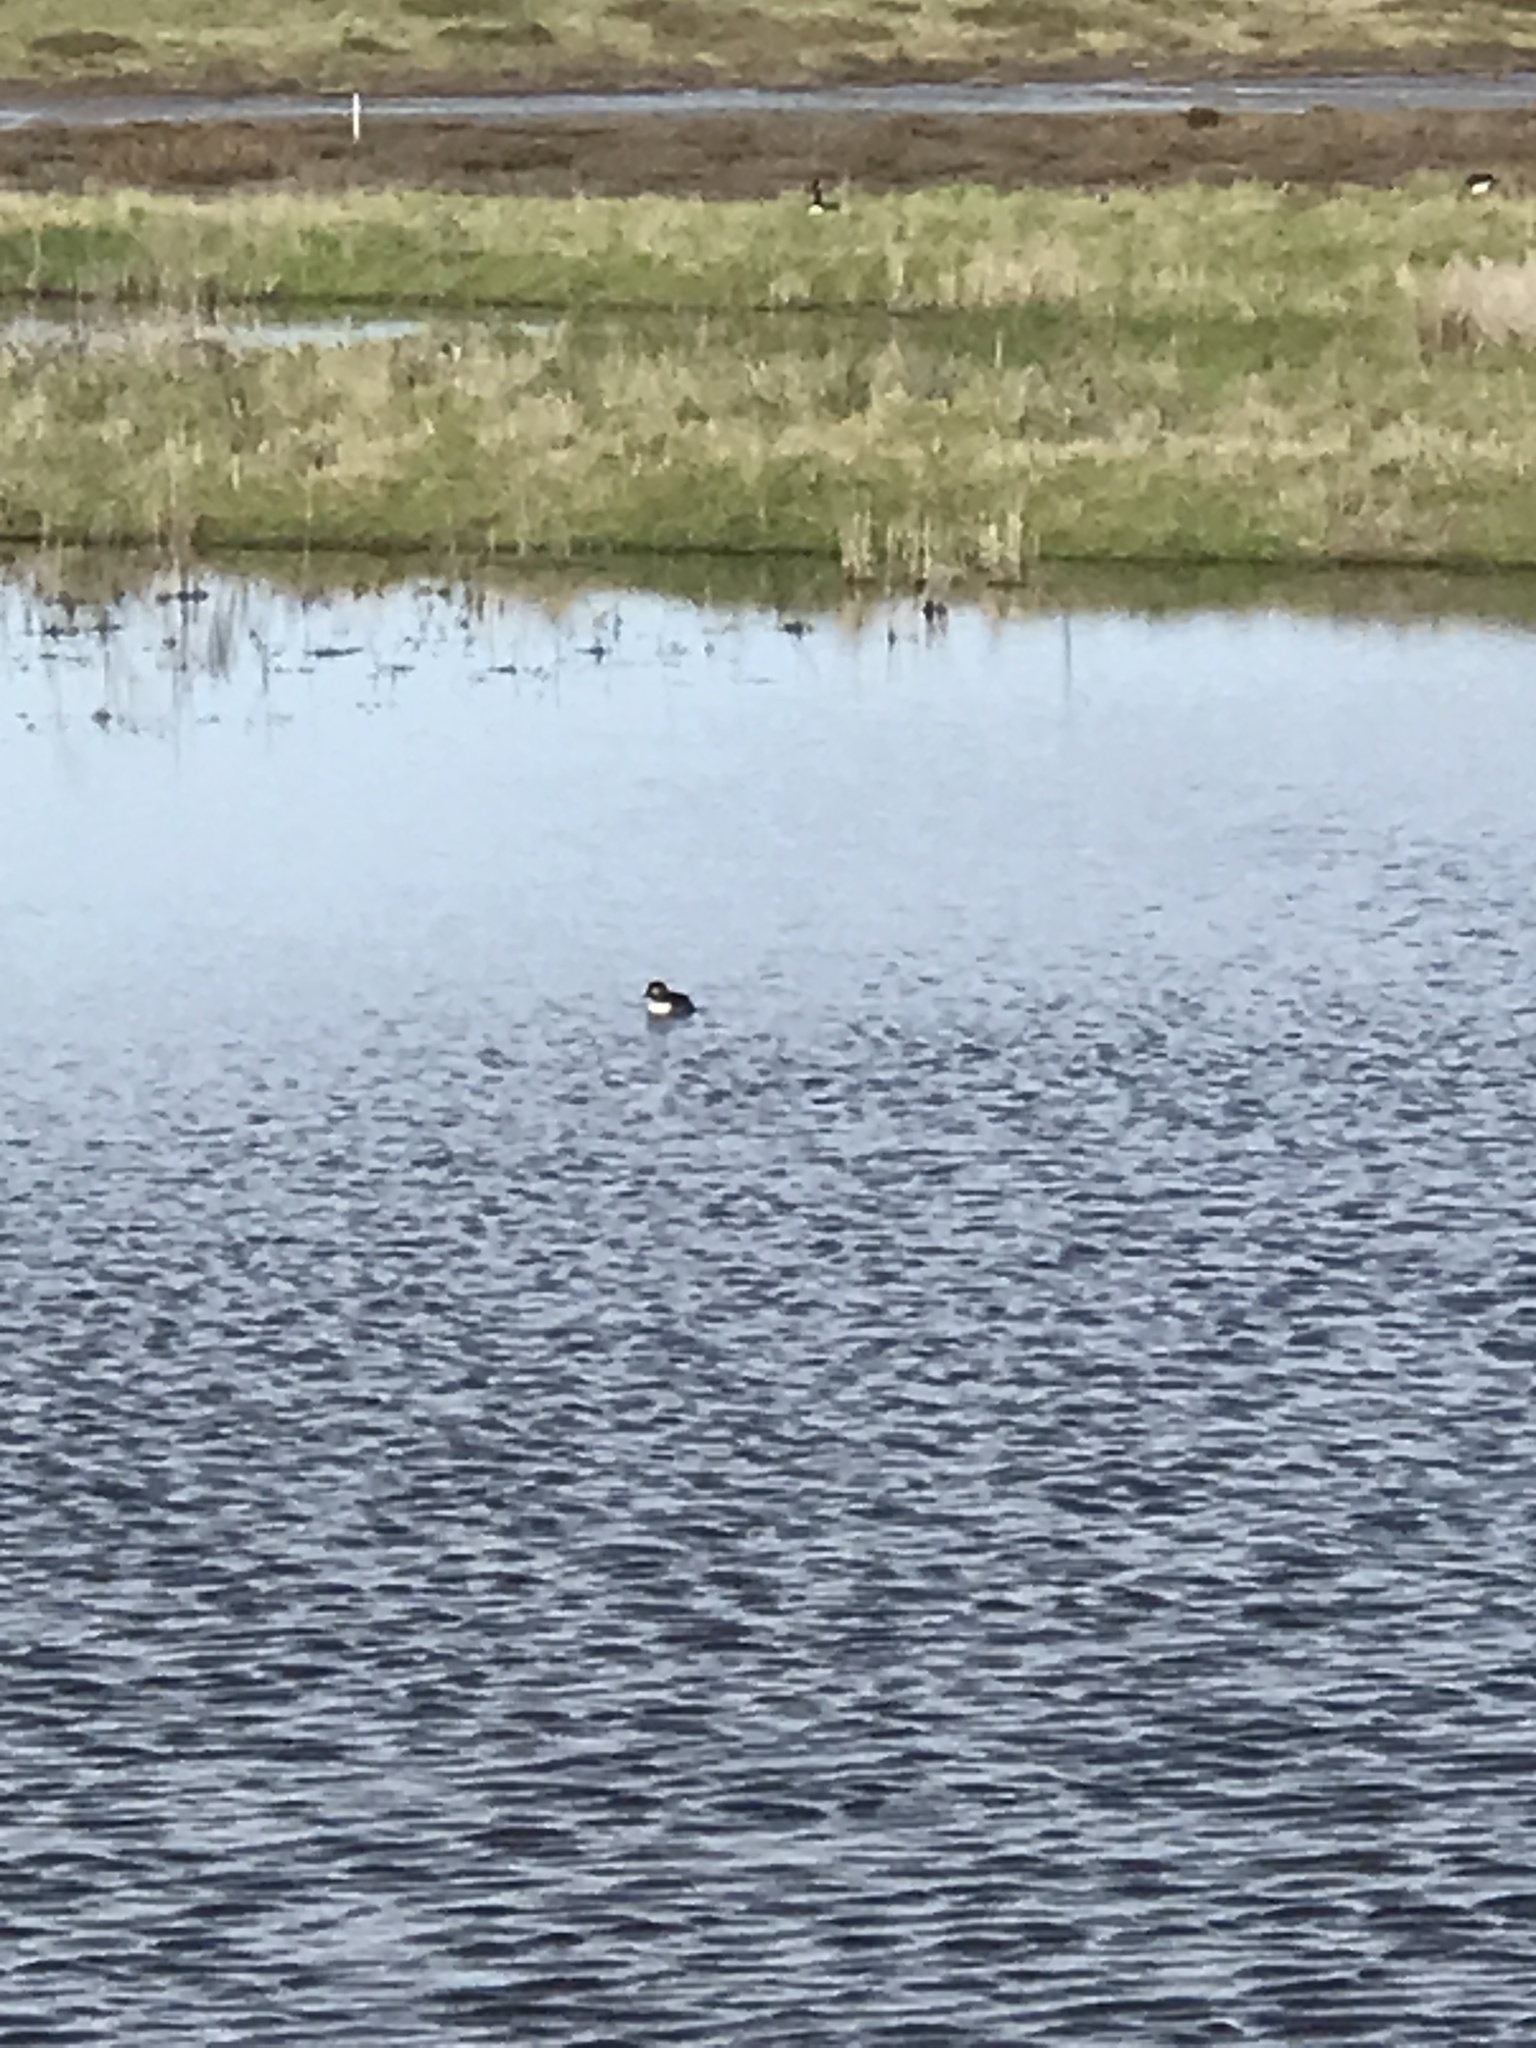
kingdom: Animalia
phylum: Chordata
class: Aves
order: Anseriformes
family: Anatidae
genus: Bucephala
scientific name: Bucephala albeola
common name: Bufflehead
